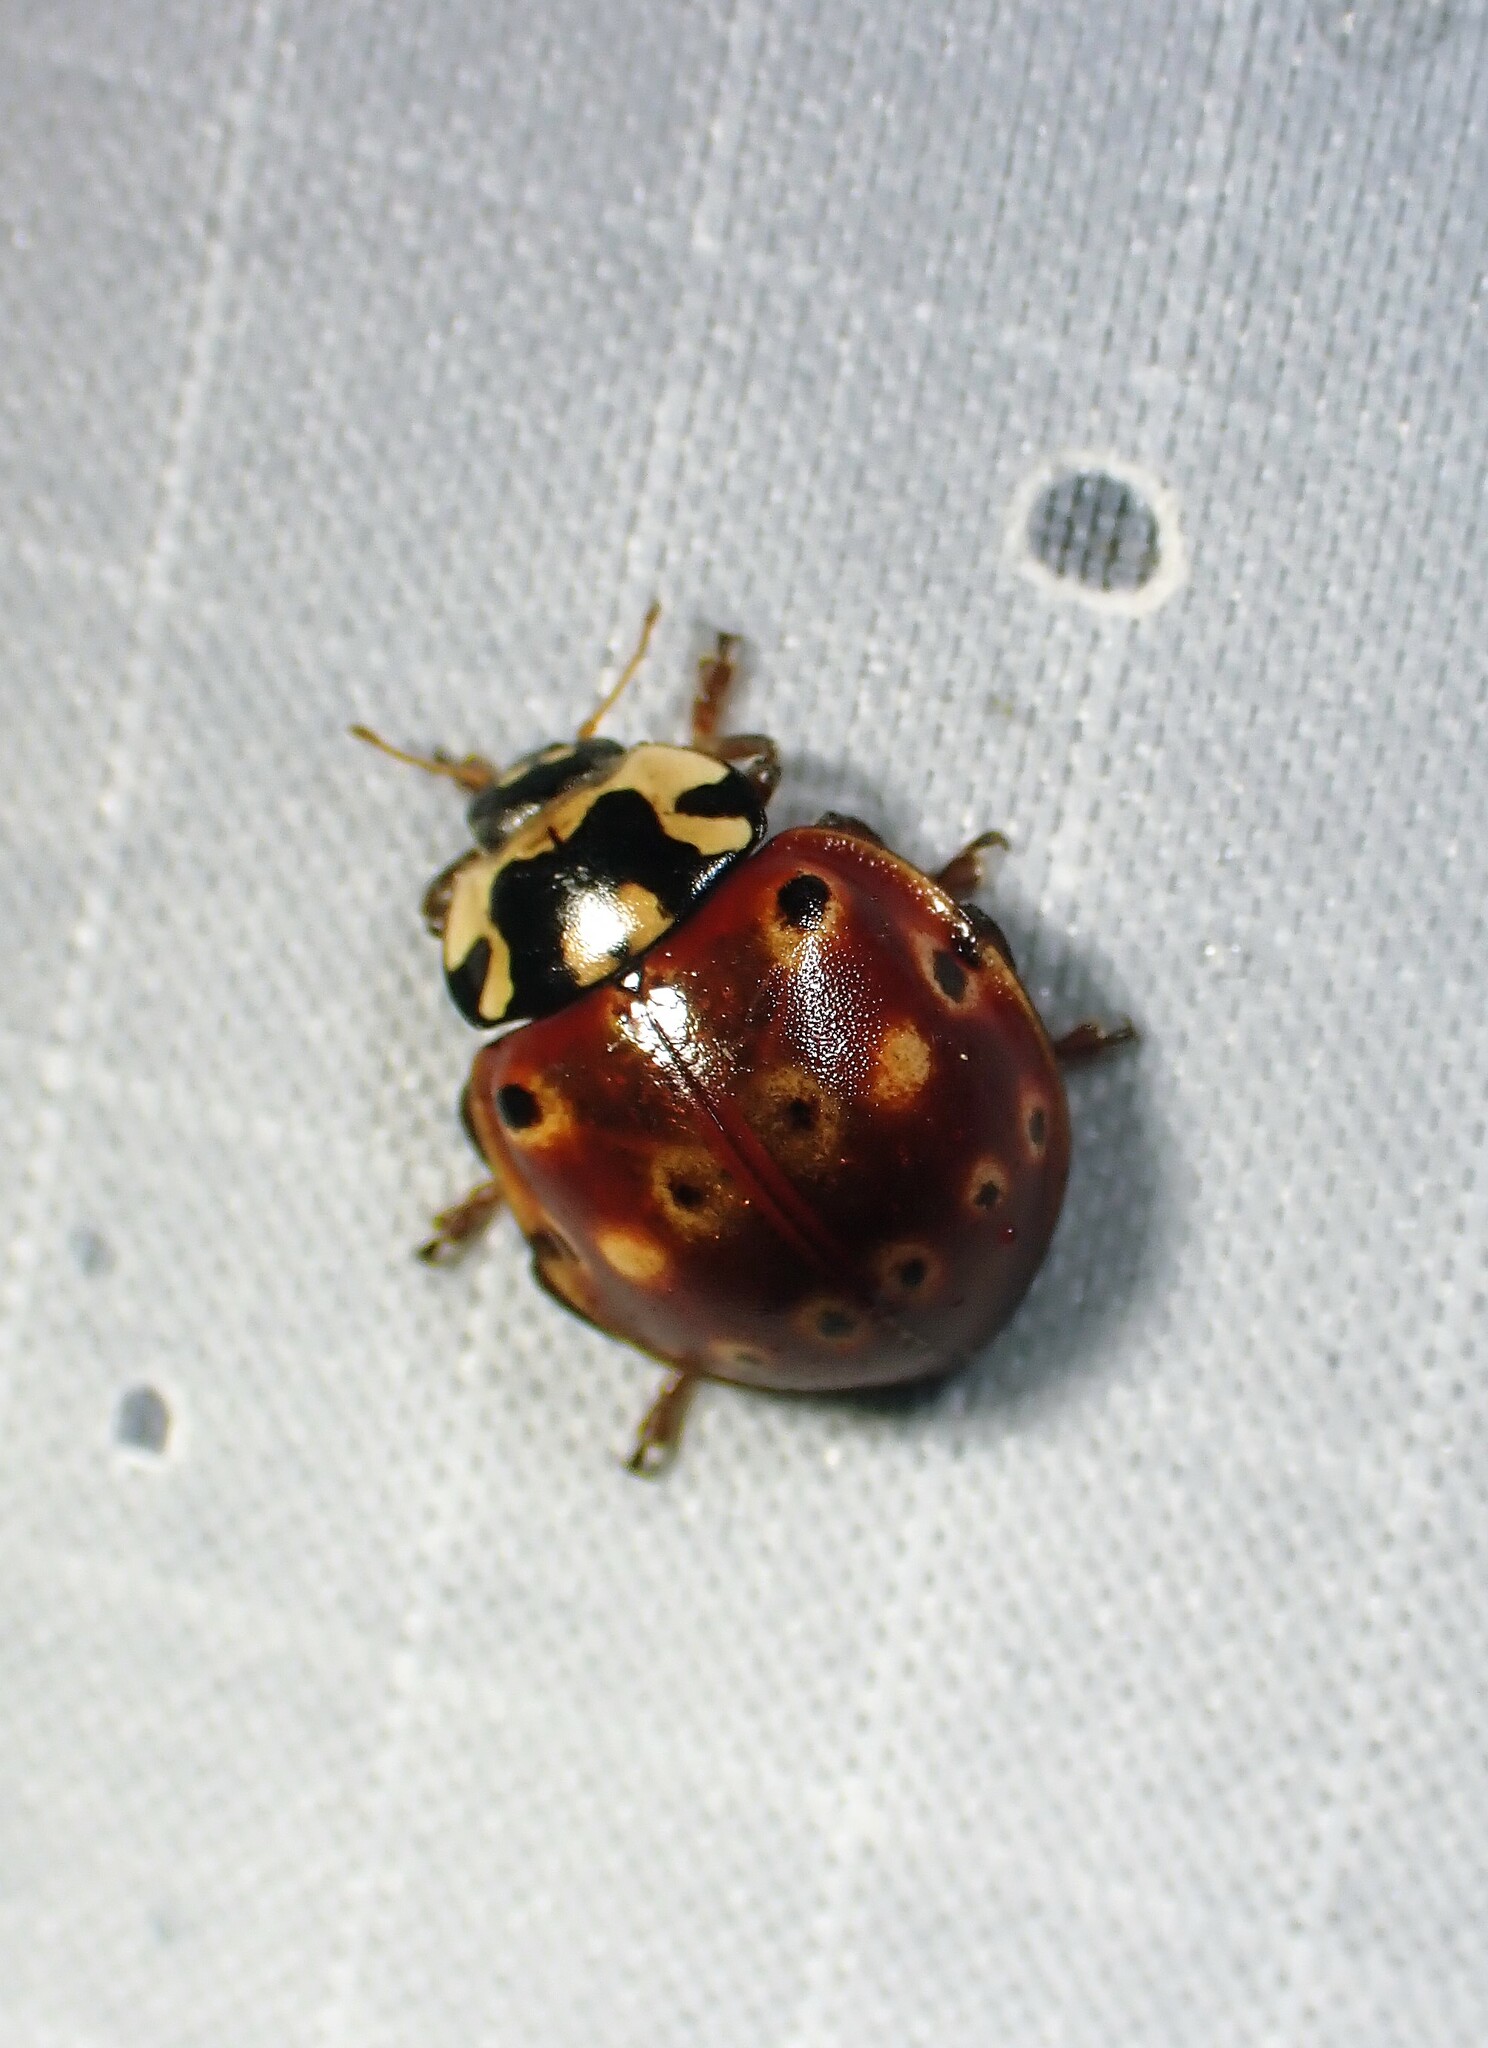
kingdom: Animalia
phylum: Arthropoda
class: Insecta
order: Coleoptera
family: Coccinellidae
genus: Anatis
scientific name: Anatis mali
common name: Eye-spotted lady beetle
